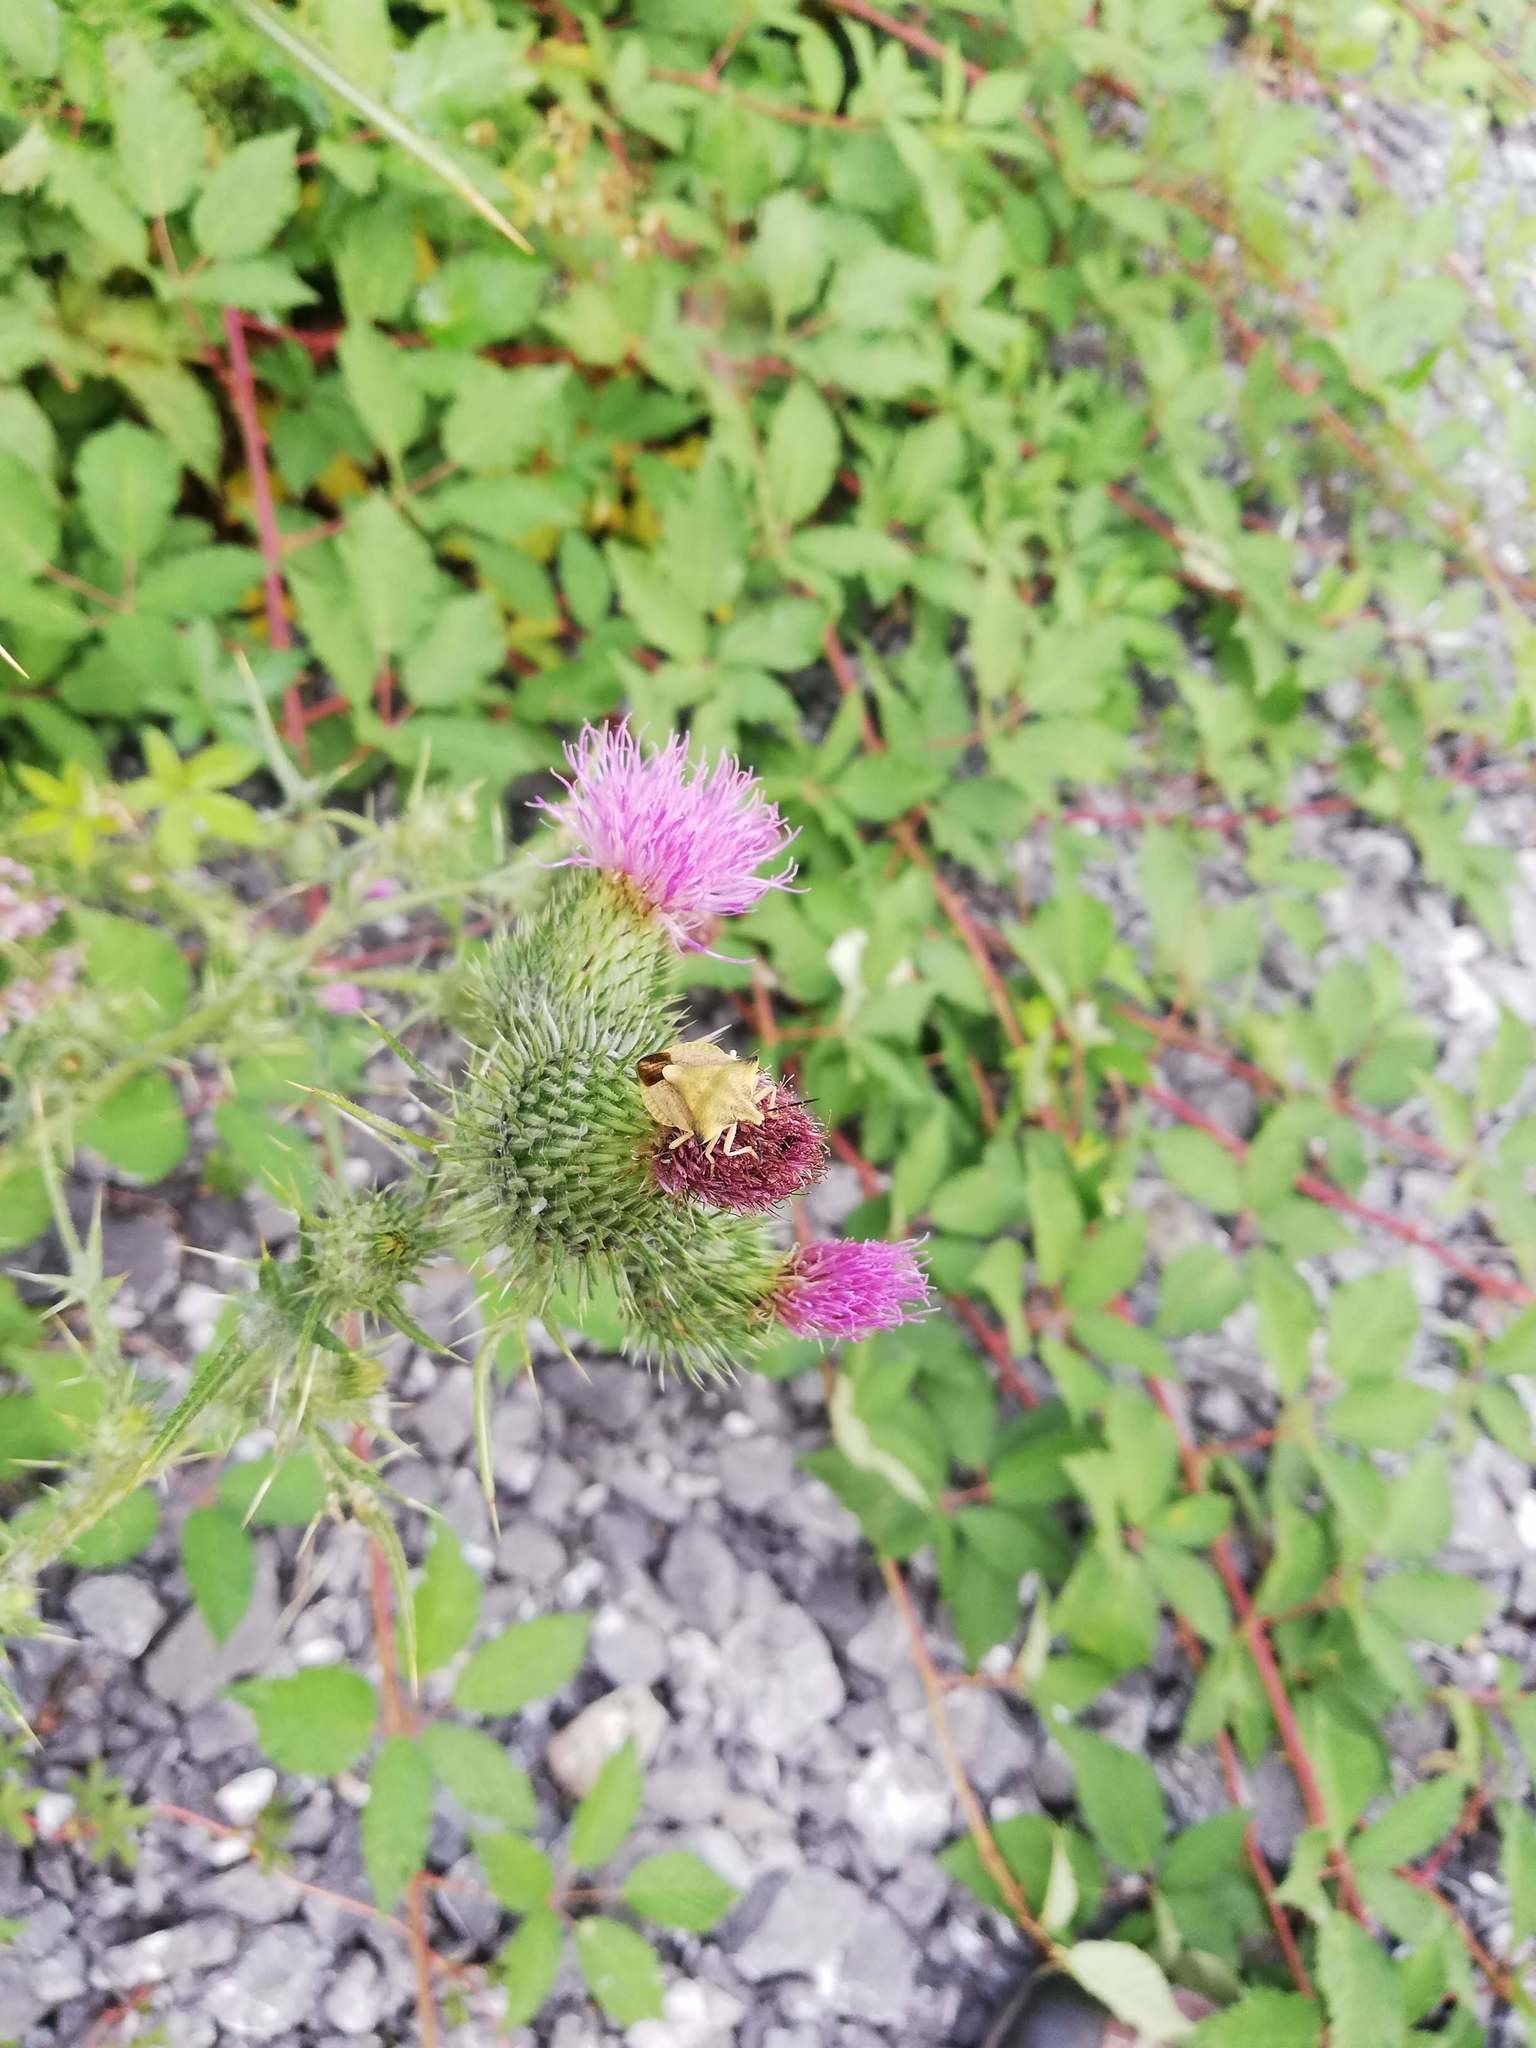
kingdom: Animalia
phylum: Arthropoda
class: Insecta
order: Hemiptera
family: Pentatomidae
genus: Carpocoris
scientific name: Carpocoris fuscispinus
